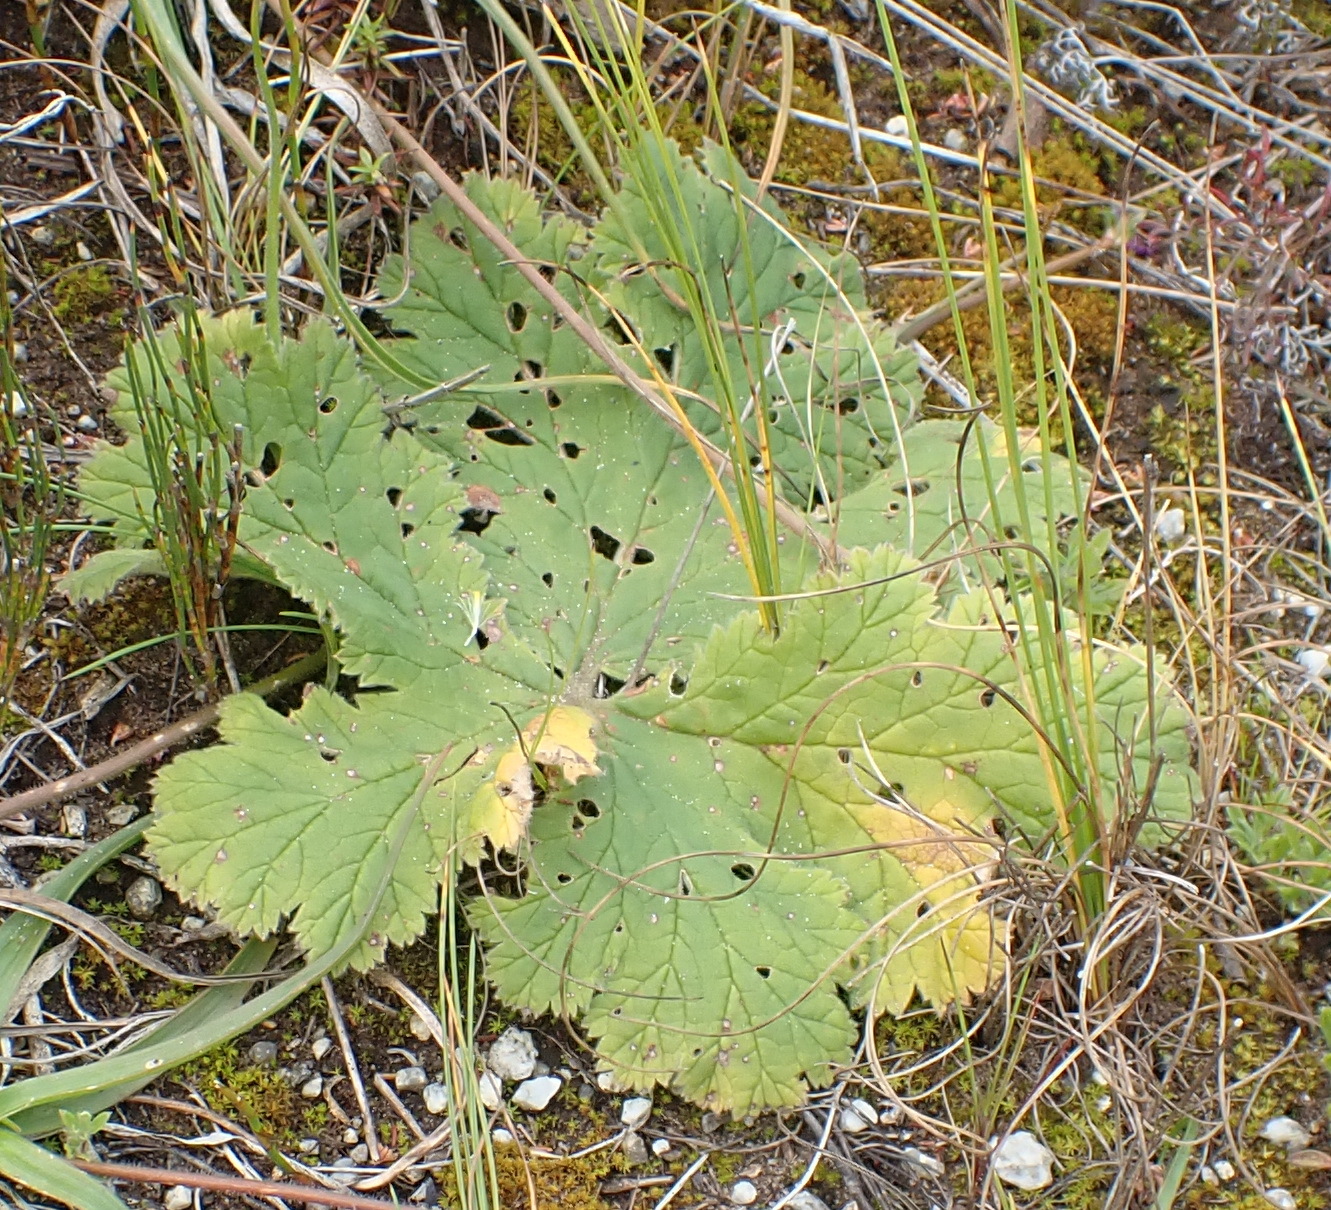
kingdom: Plantae
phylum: Tracheophyta
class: Magnoliopsida
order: Geraniales
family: Geraniaceae
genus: Pelargonium
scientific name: Pelargonium lobatum
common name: Vine-leaf pelargonium
